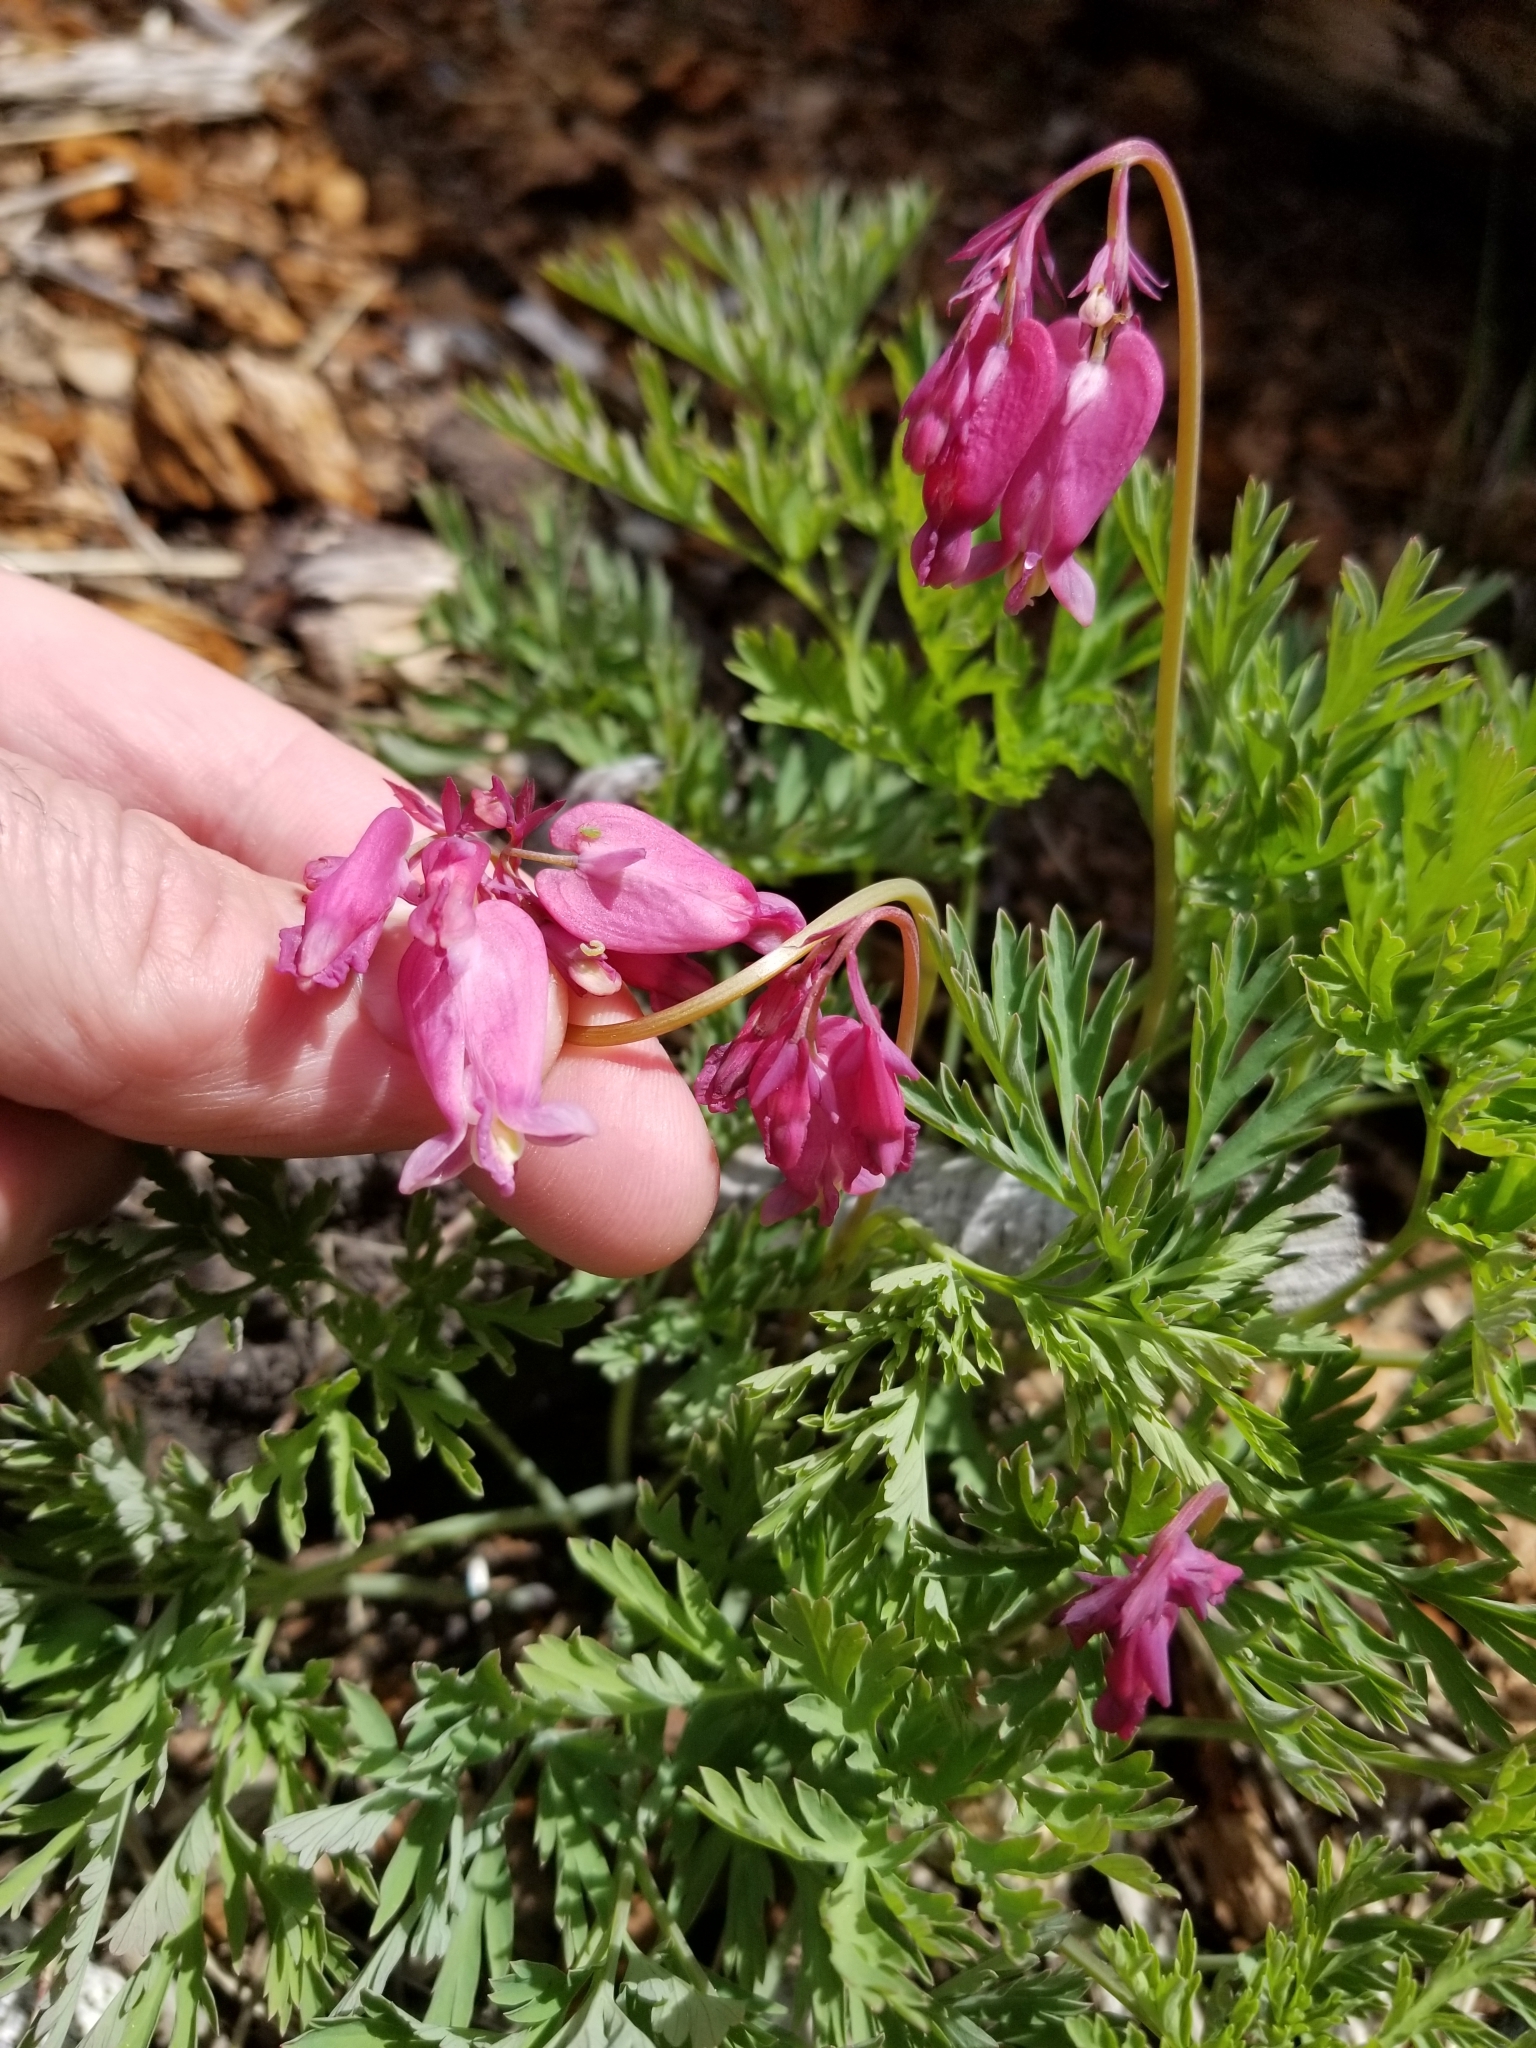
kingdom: Plantae
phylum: Tracheophyta
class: Magnoliopsida
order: Ranunculales
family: Papaveraceae
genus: Dicentra
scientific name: Dicentra formosa
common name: Bleeding-heart
